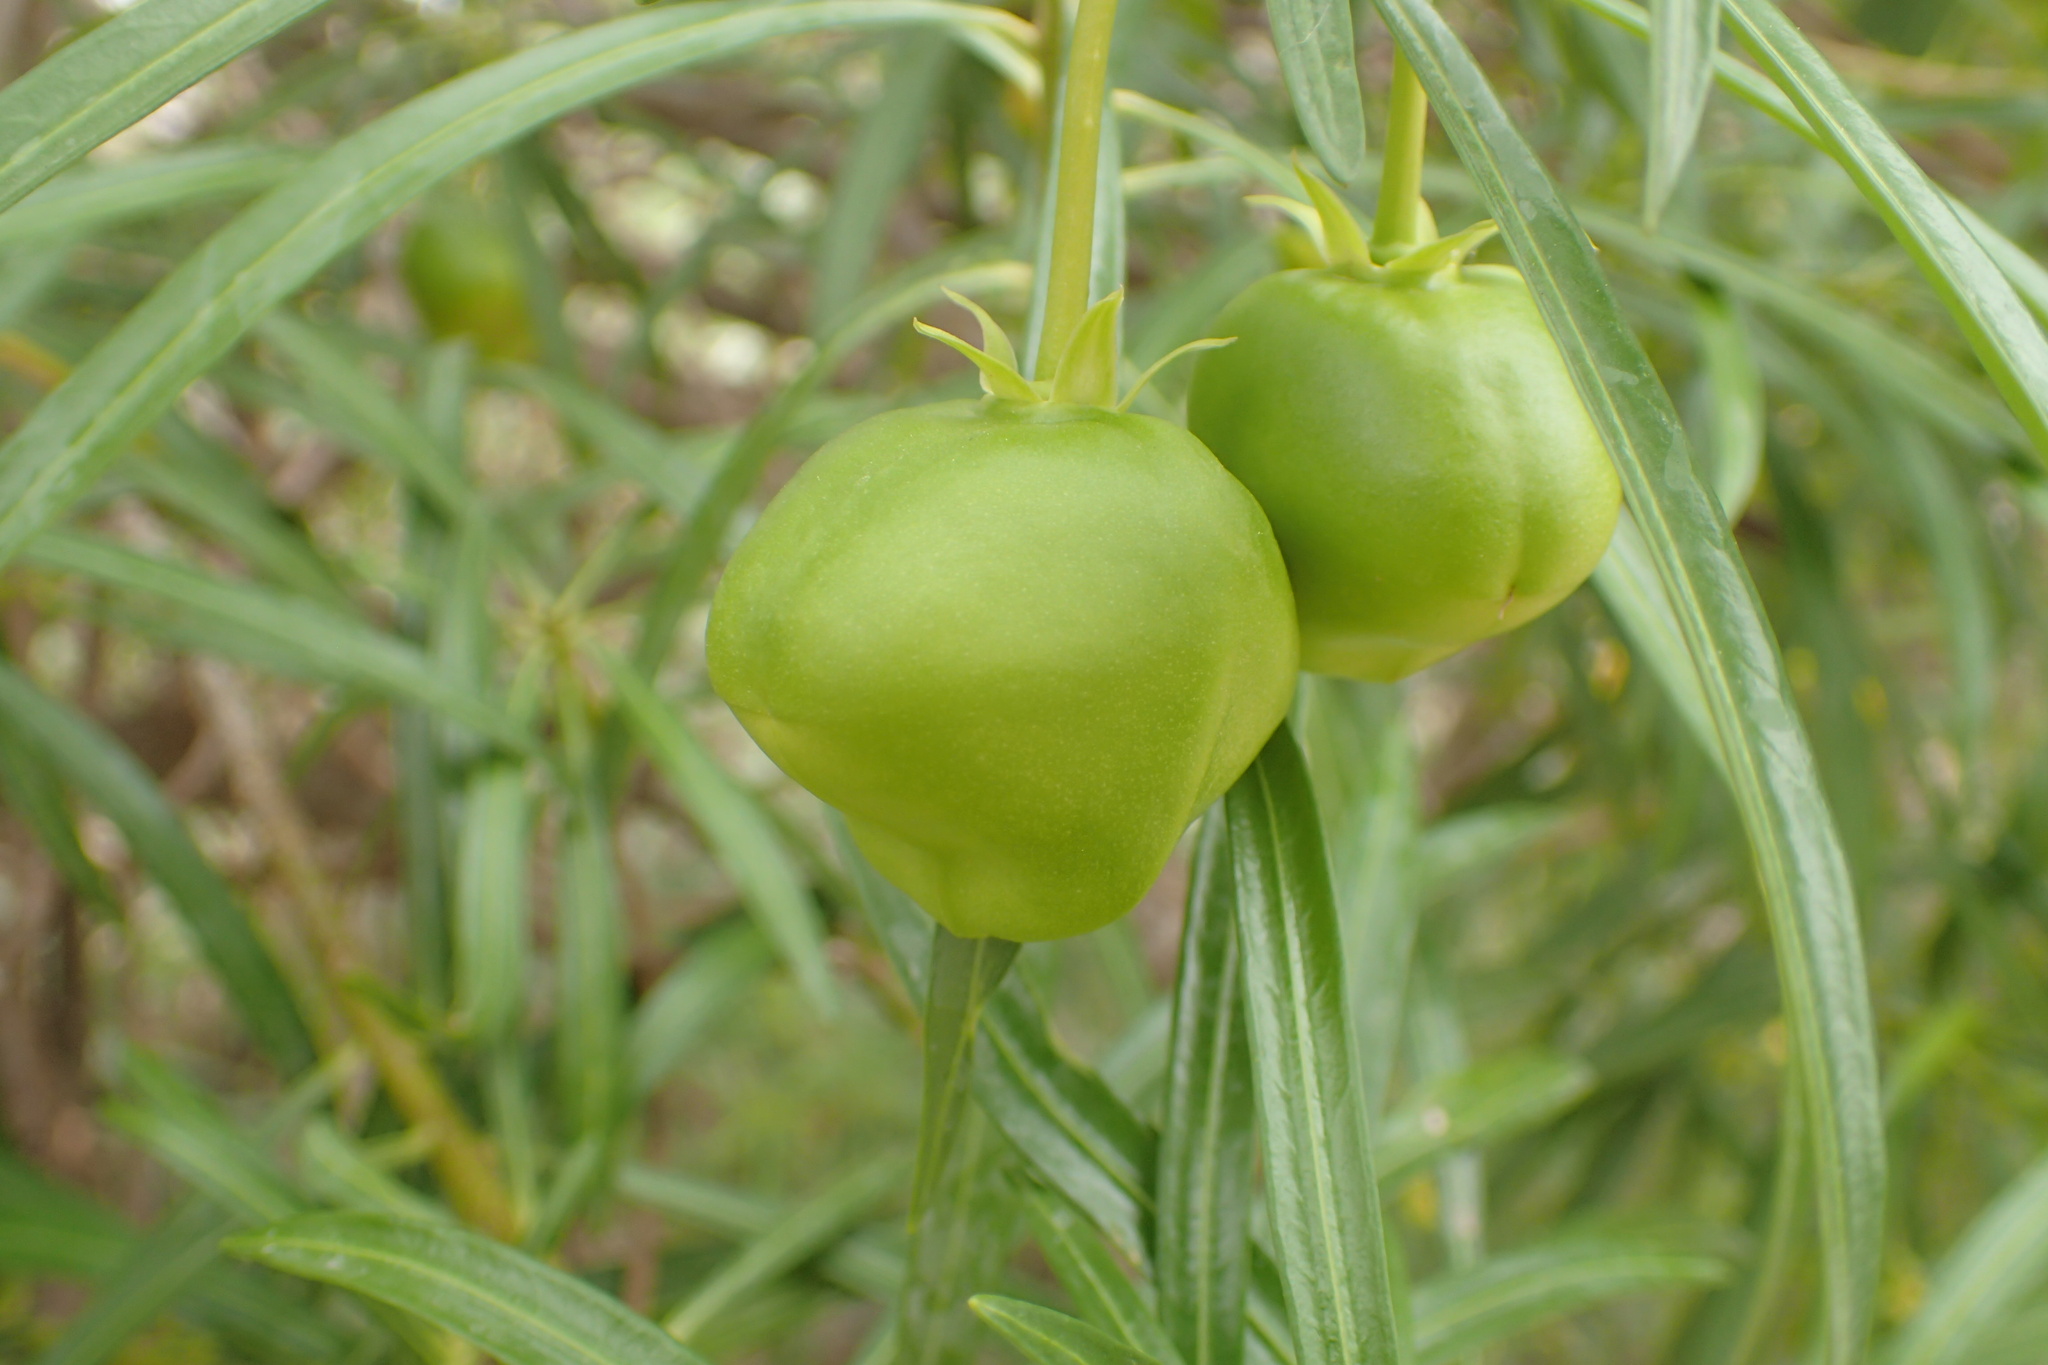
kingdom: Plantae
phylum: Tracheophyta
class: Magnoliopsida
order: Gentianales
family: Apocynaceae
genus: Cascabela
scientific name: Cascabela thevetia
